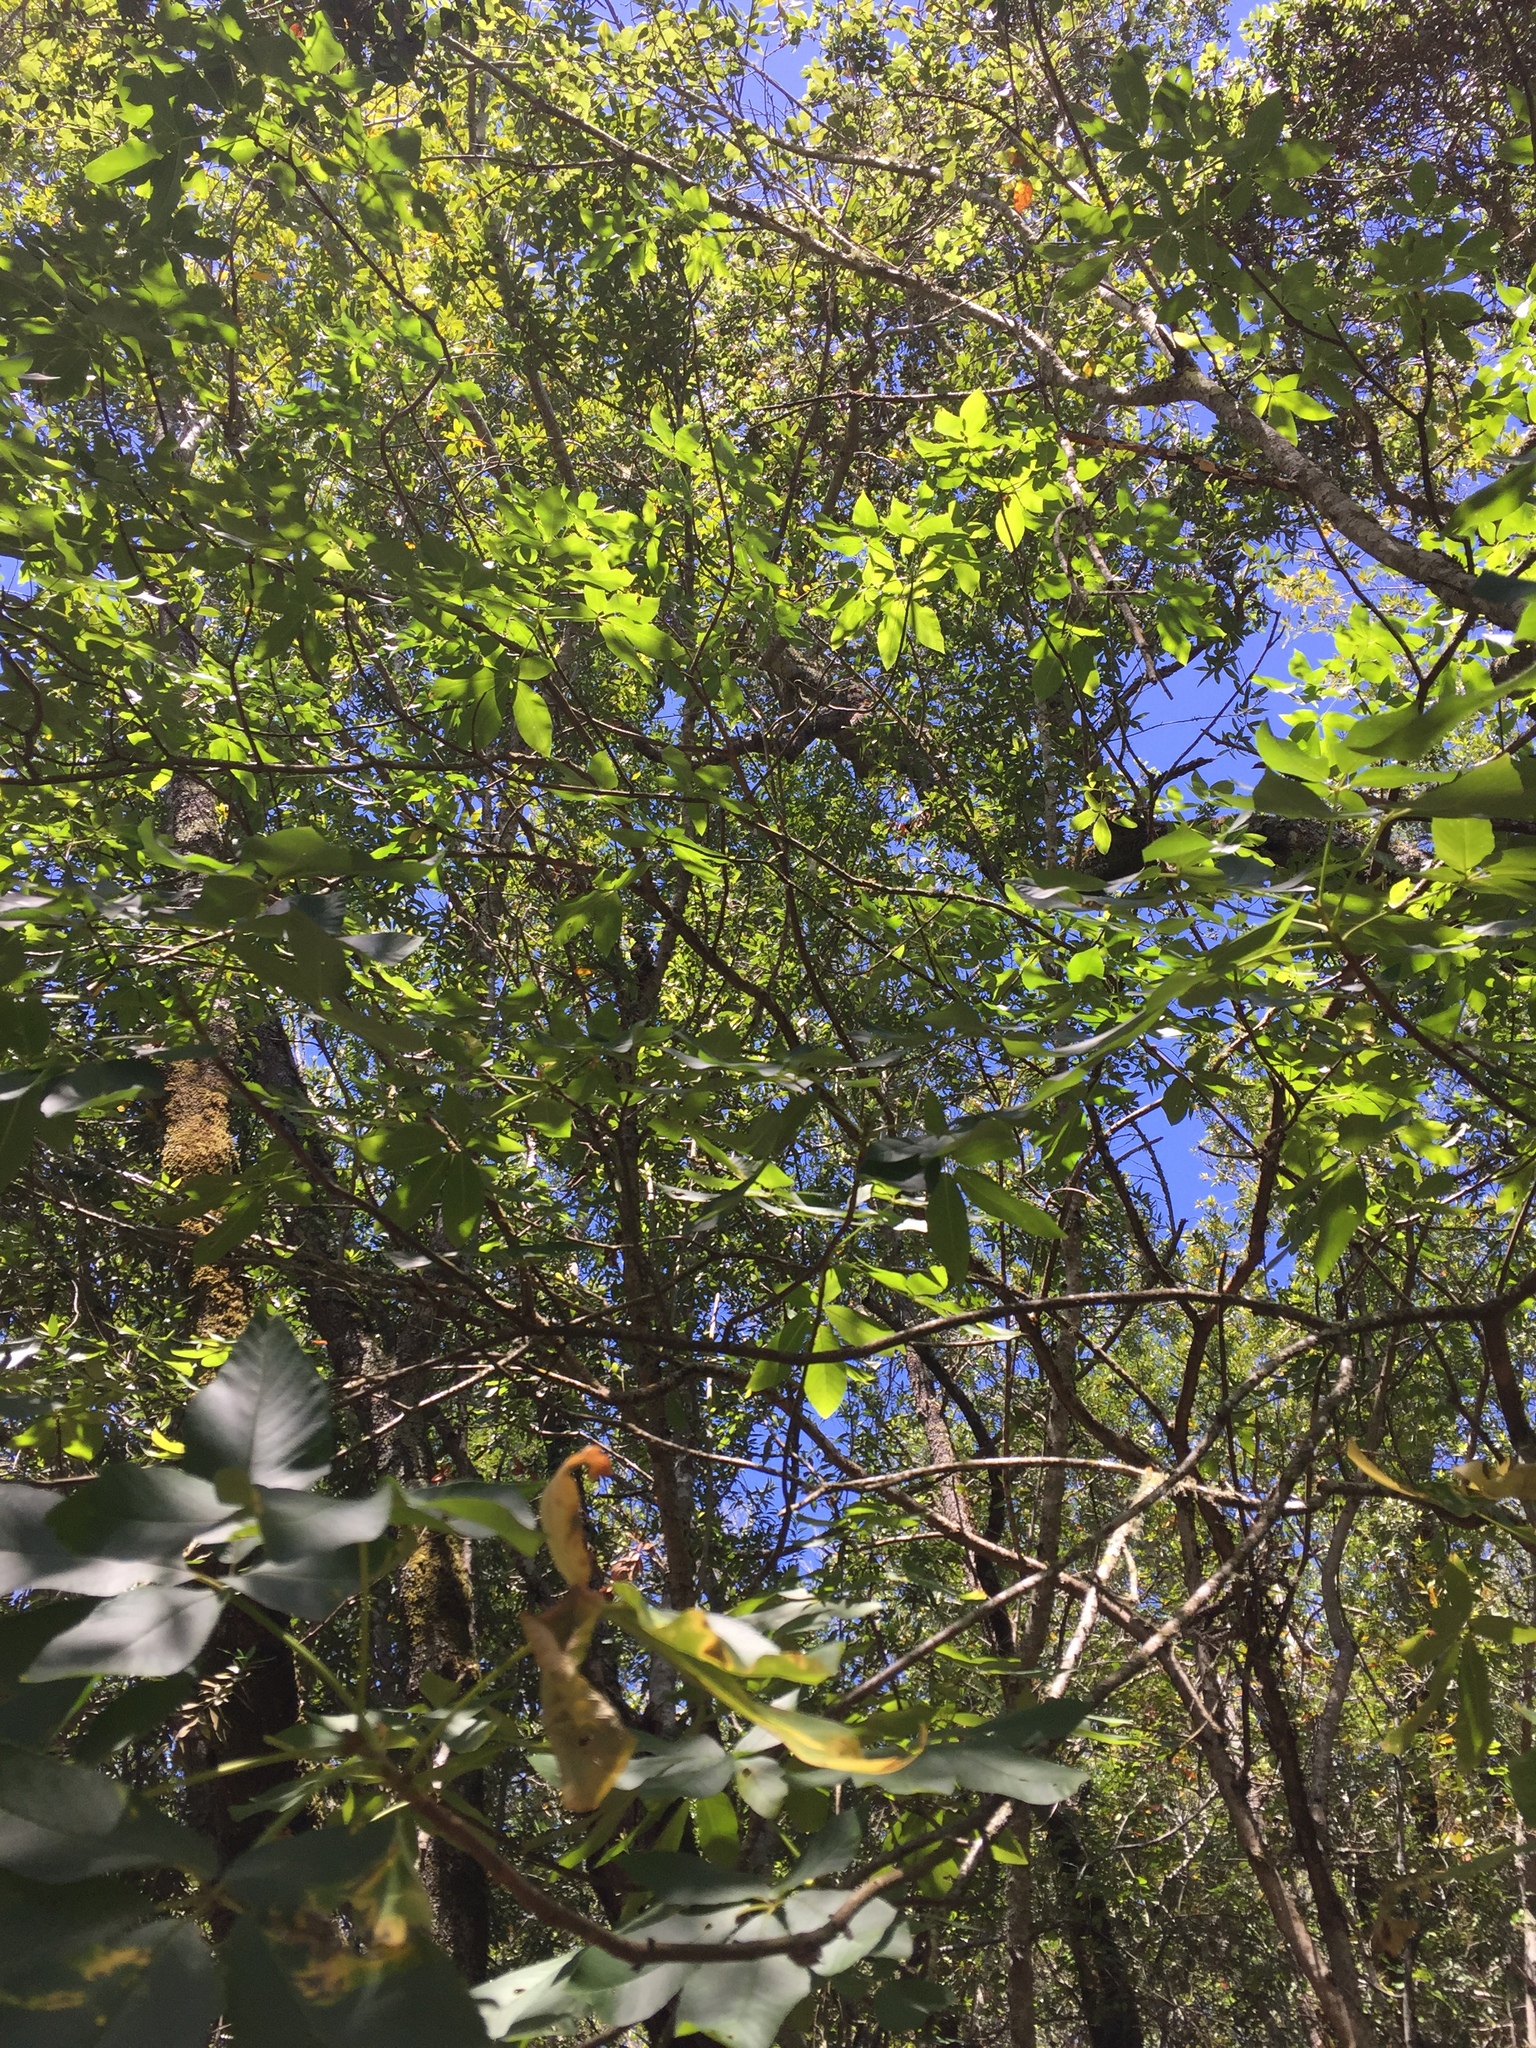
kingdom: Plantae
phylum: Tracheophyta
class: Magnoliopsida
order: Sapindales
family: Sapindaceae
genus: Aesculus
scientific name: Aesculus californica
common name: California buckeye
